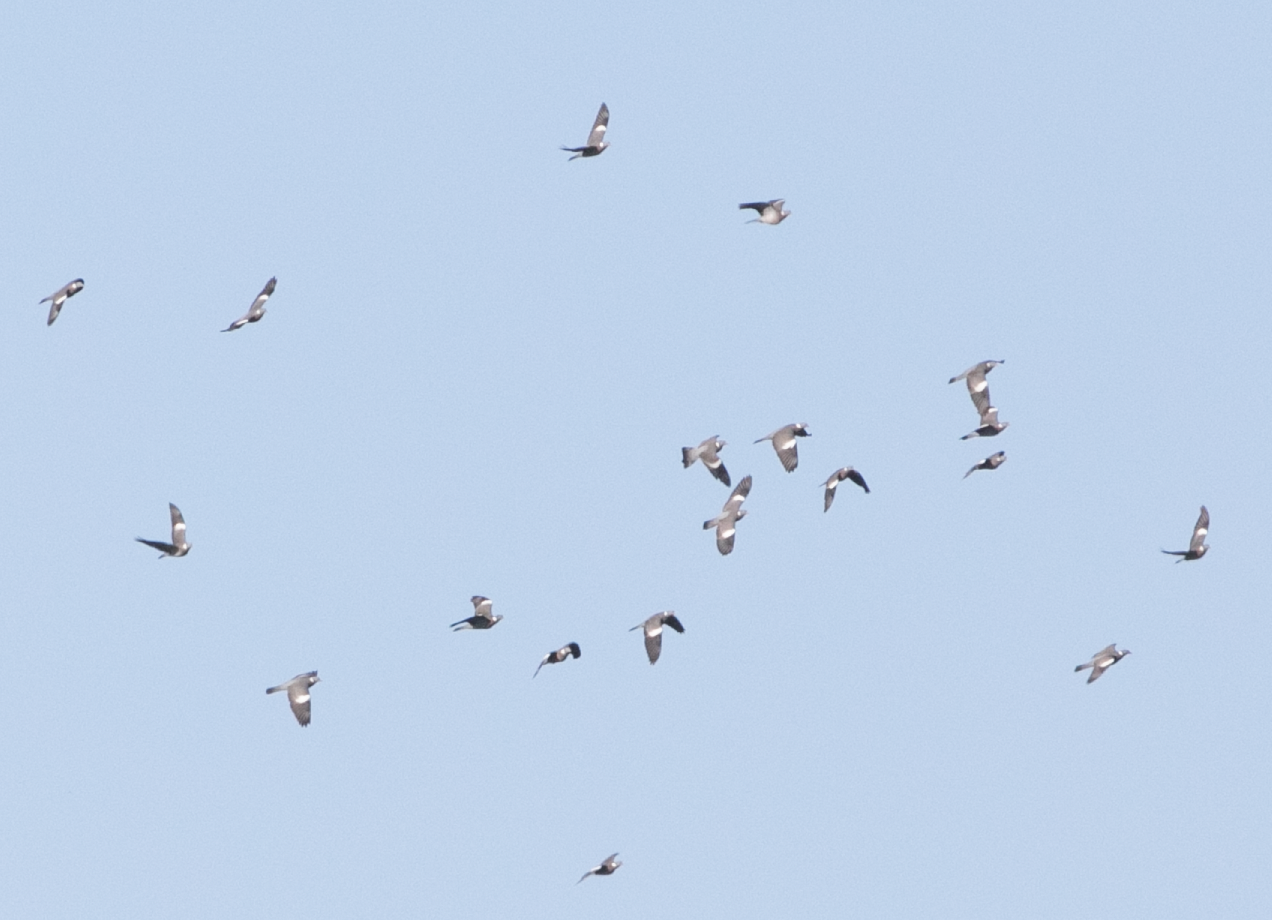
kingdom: Animalia
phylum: Chordata
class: Aves
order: Columbiformes
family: Columbidae
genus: Columba
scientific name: Columba palumbus
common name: Common wood pigeon
